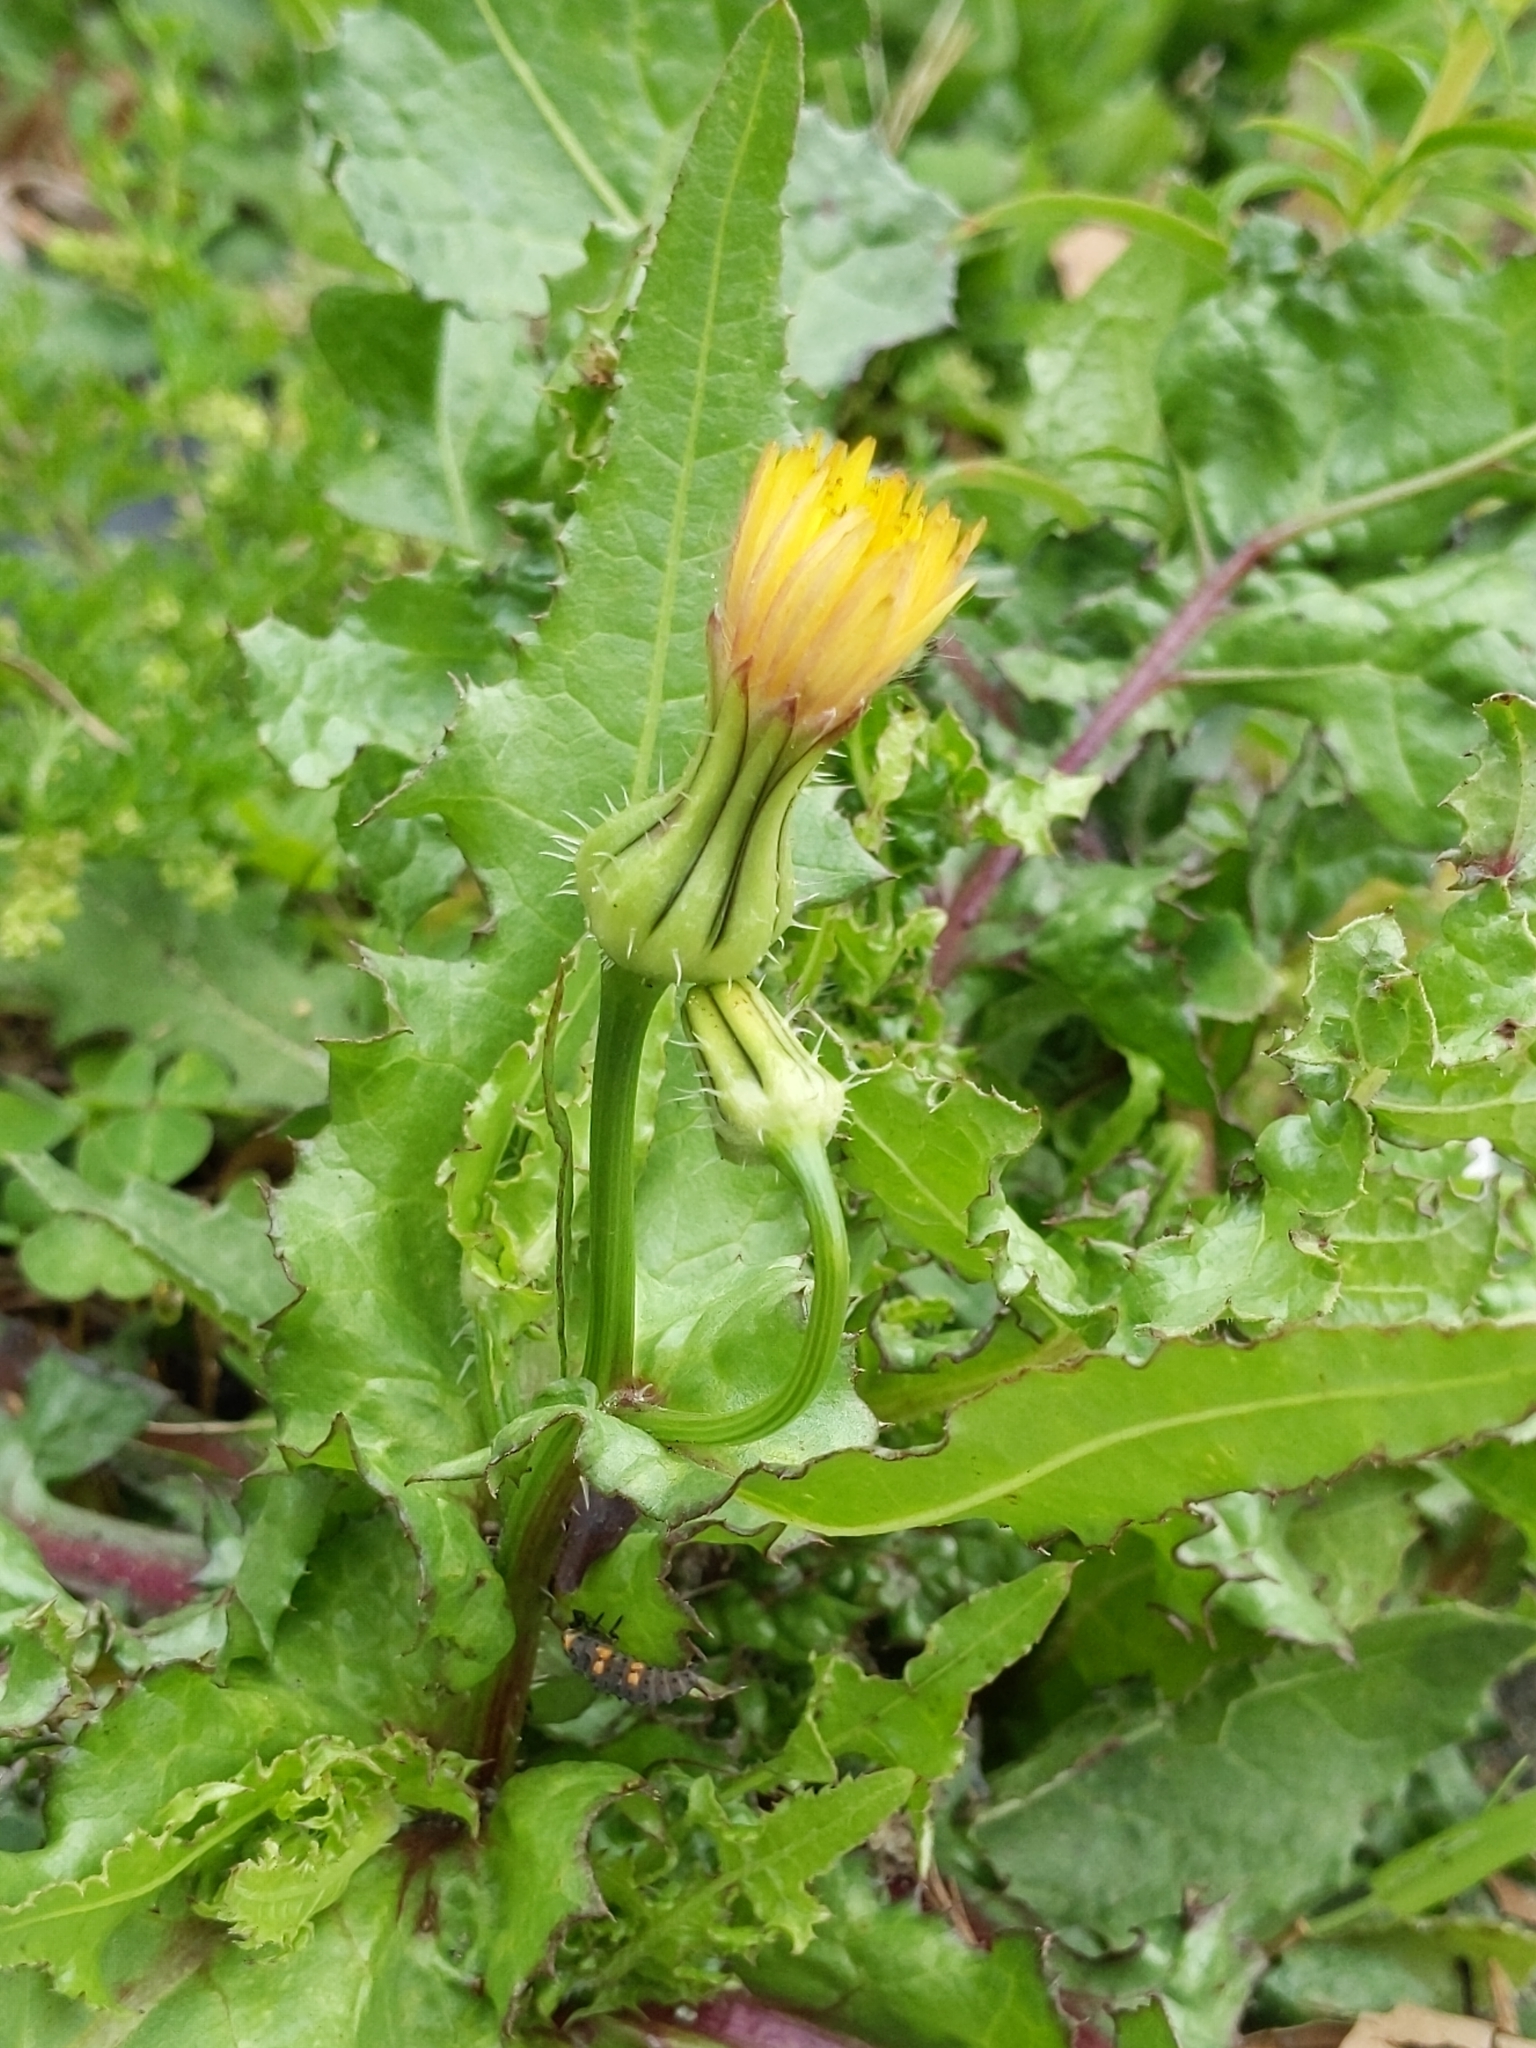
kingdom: Plantae
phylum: Tracheophyta
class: Magnoliopsida
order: Asterales
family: Asteraceae
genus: Urospermum
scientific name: Urospermum picroides
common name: False hawkbit
